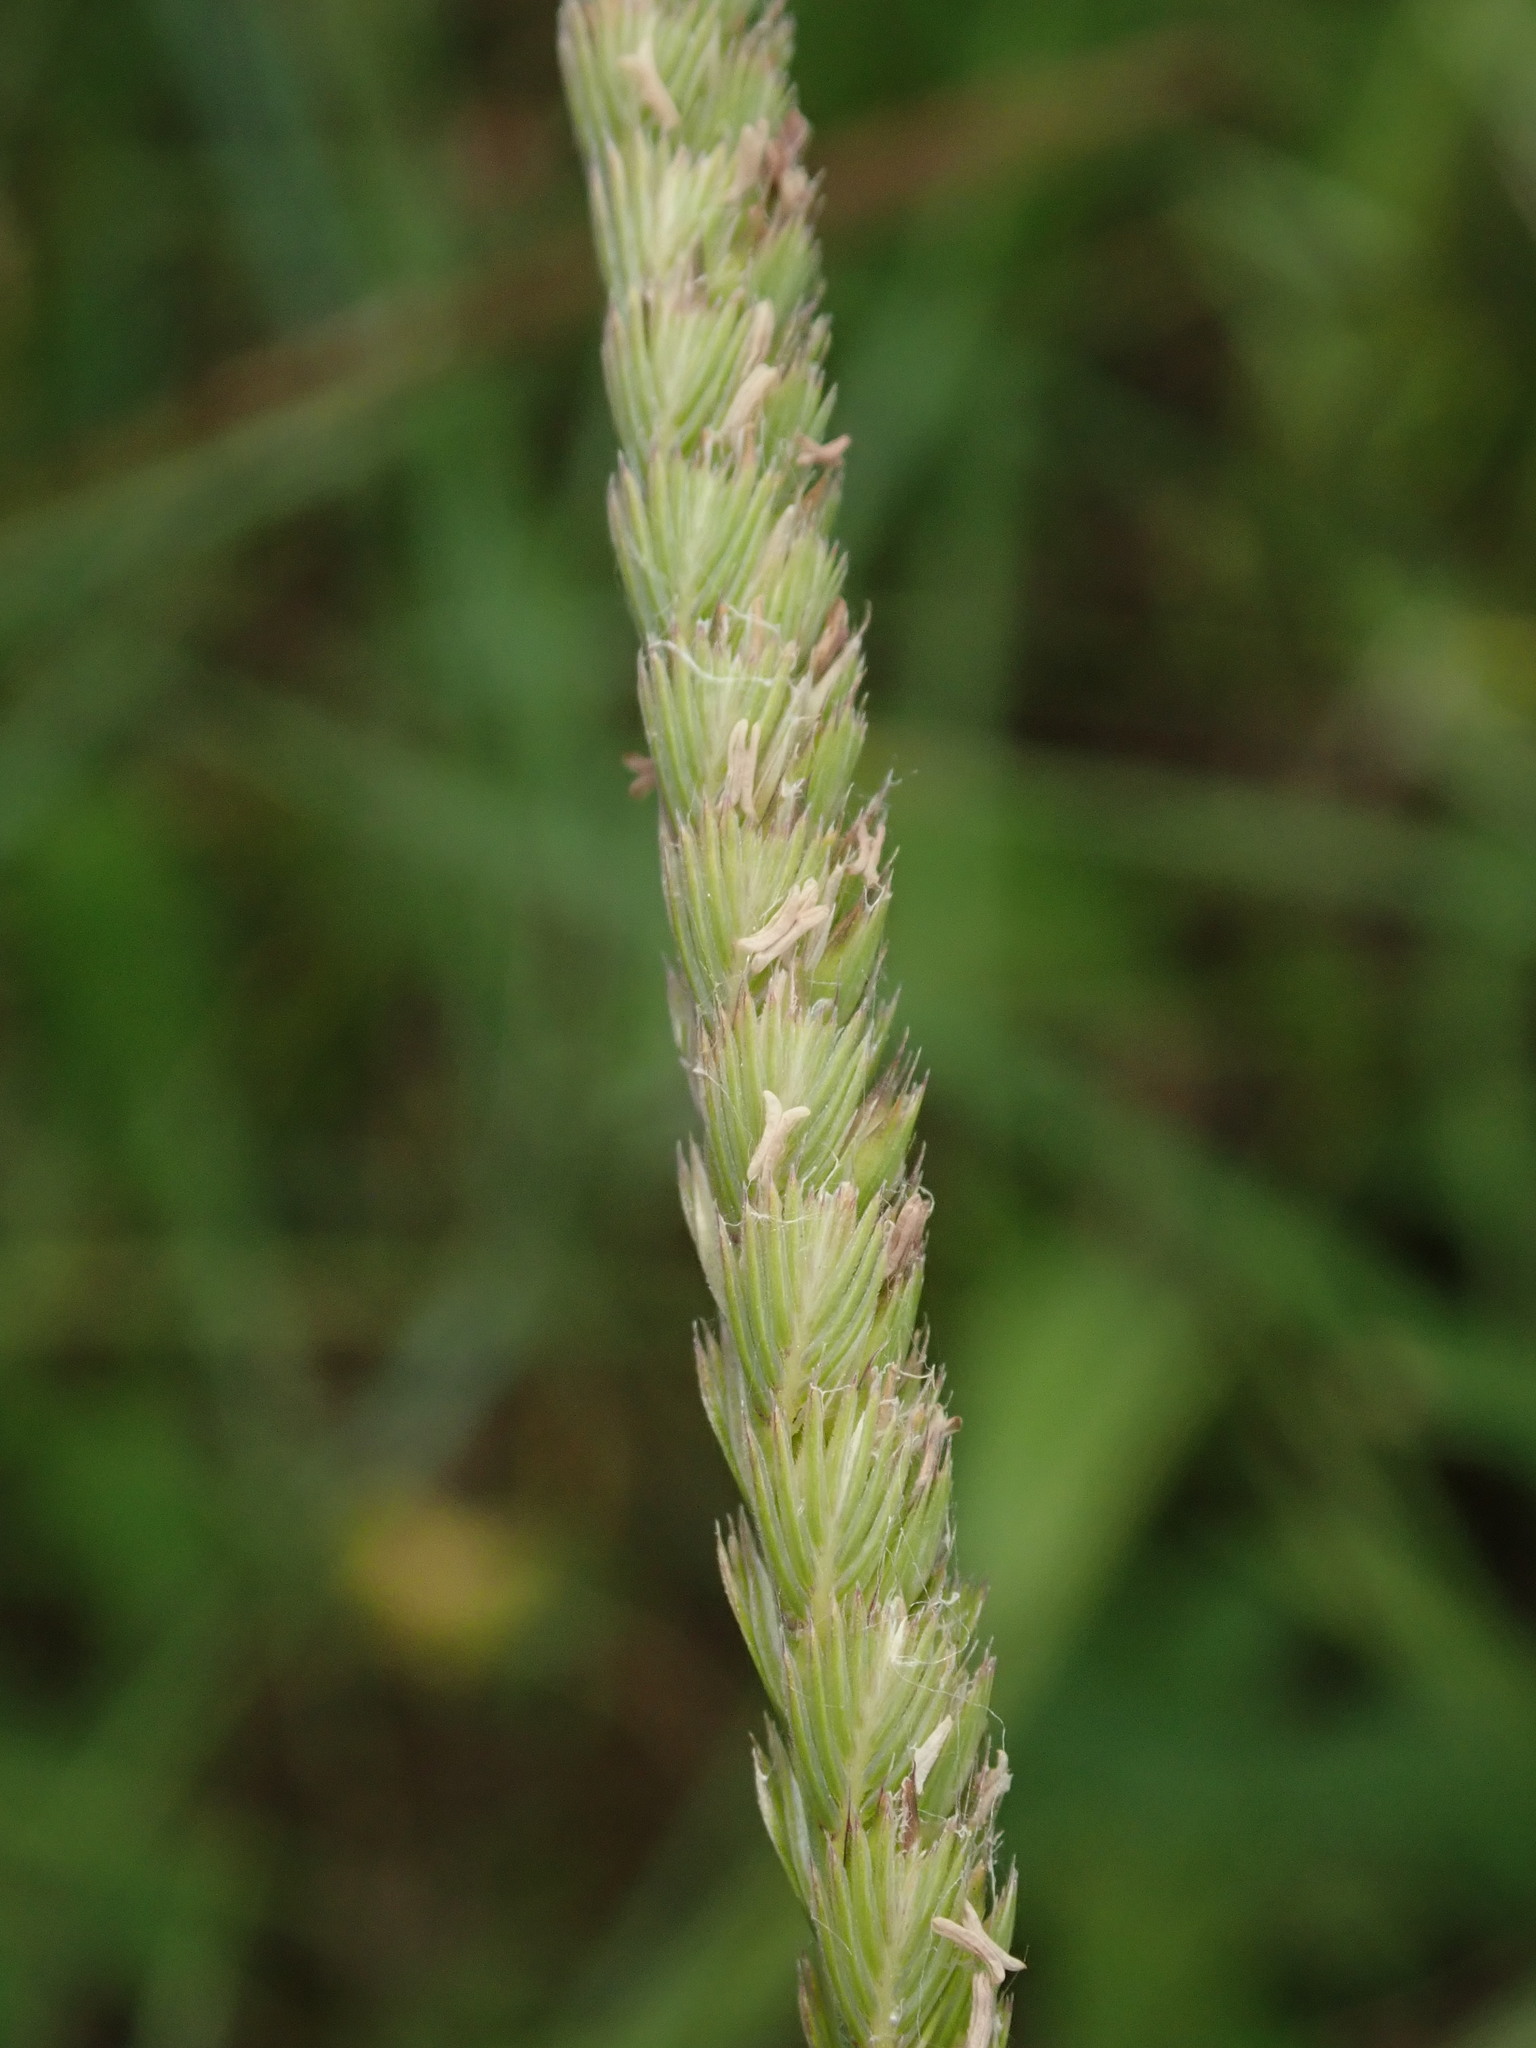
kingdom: Plantae
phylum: Tracheophyta
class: Liliopsida
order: Poales
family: Poaceae
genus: Cynosurus
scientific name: Cynosurus cristatus
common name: Crested dog's-tail
